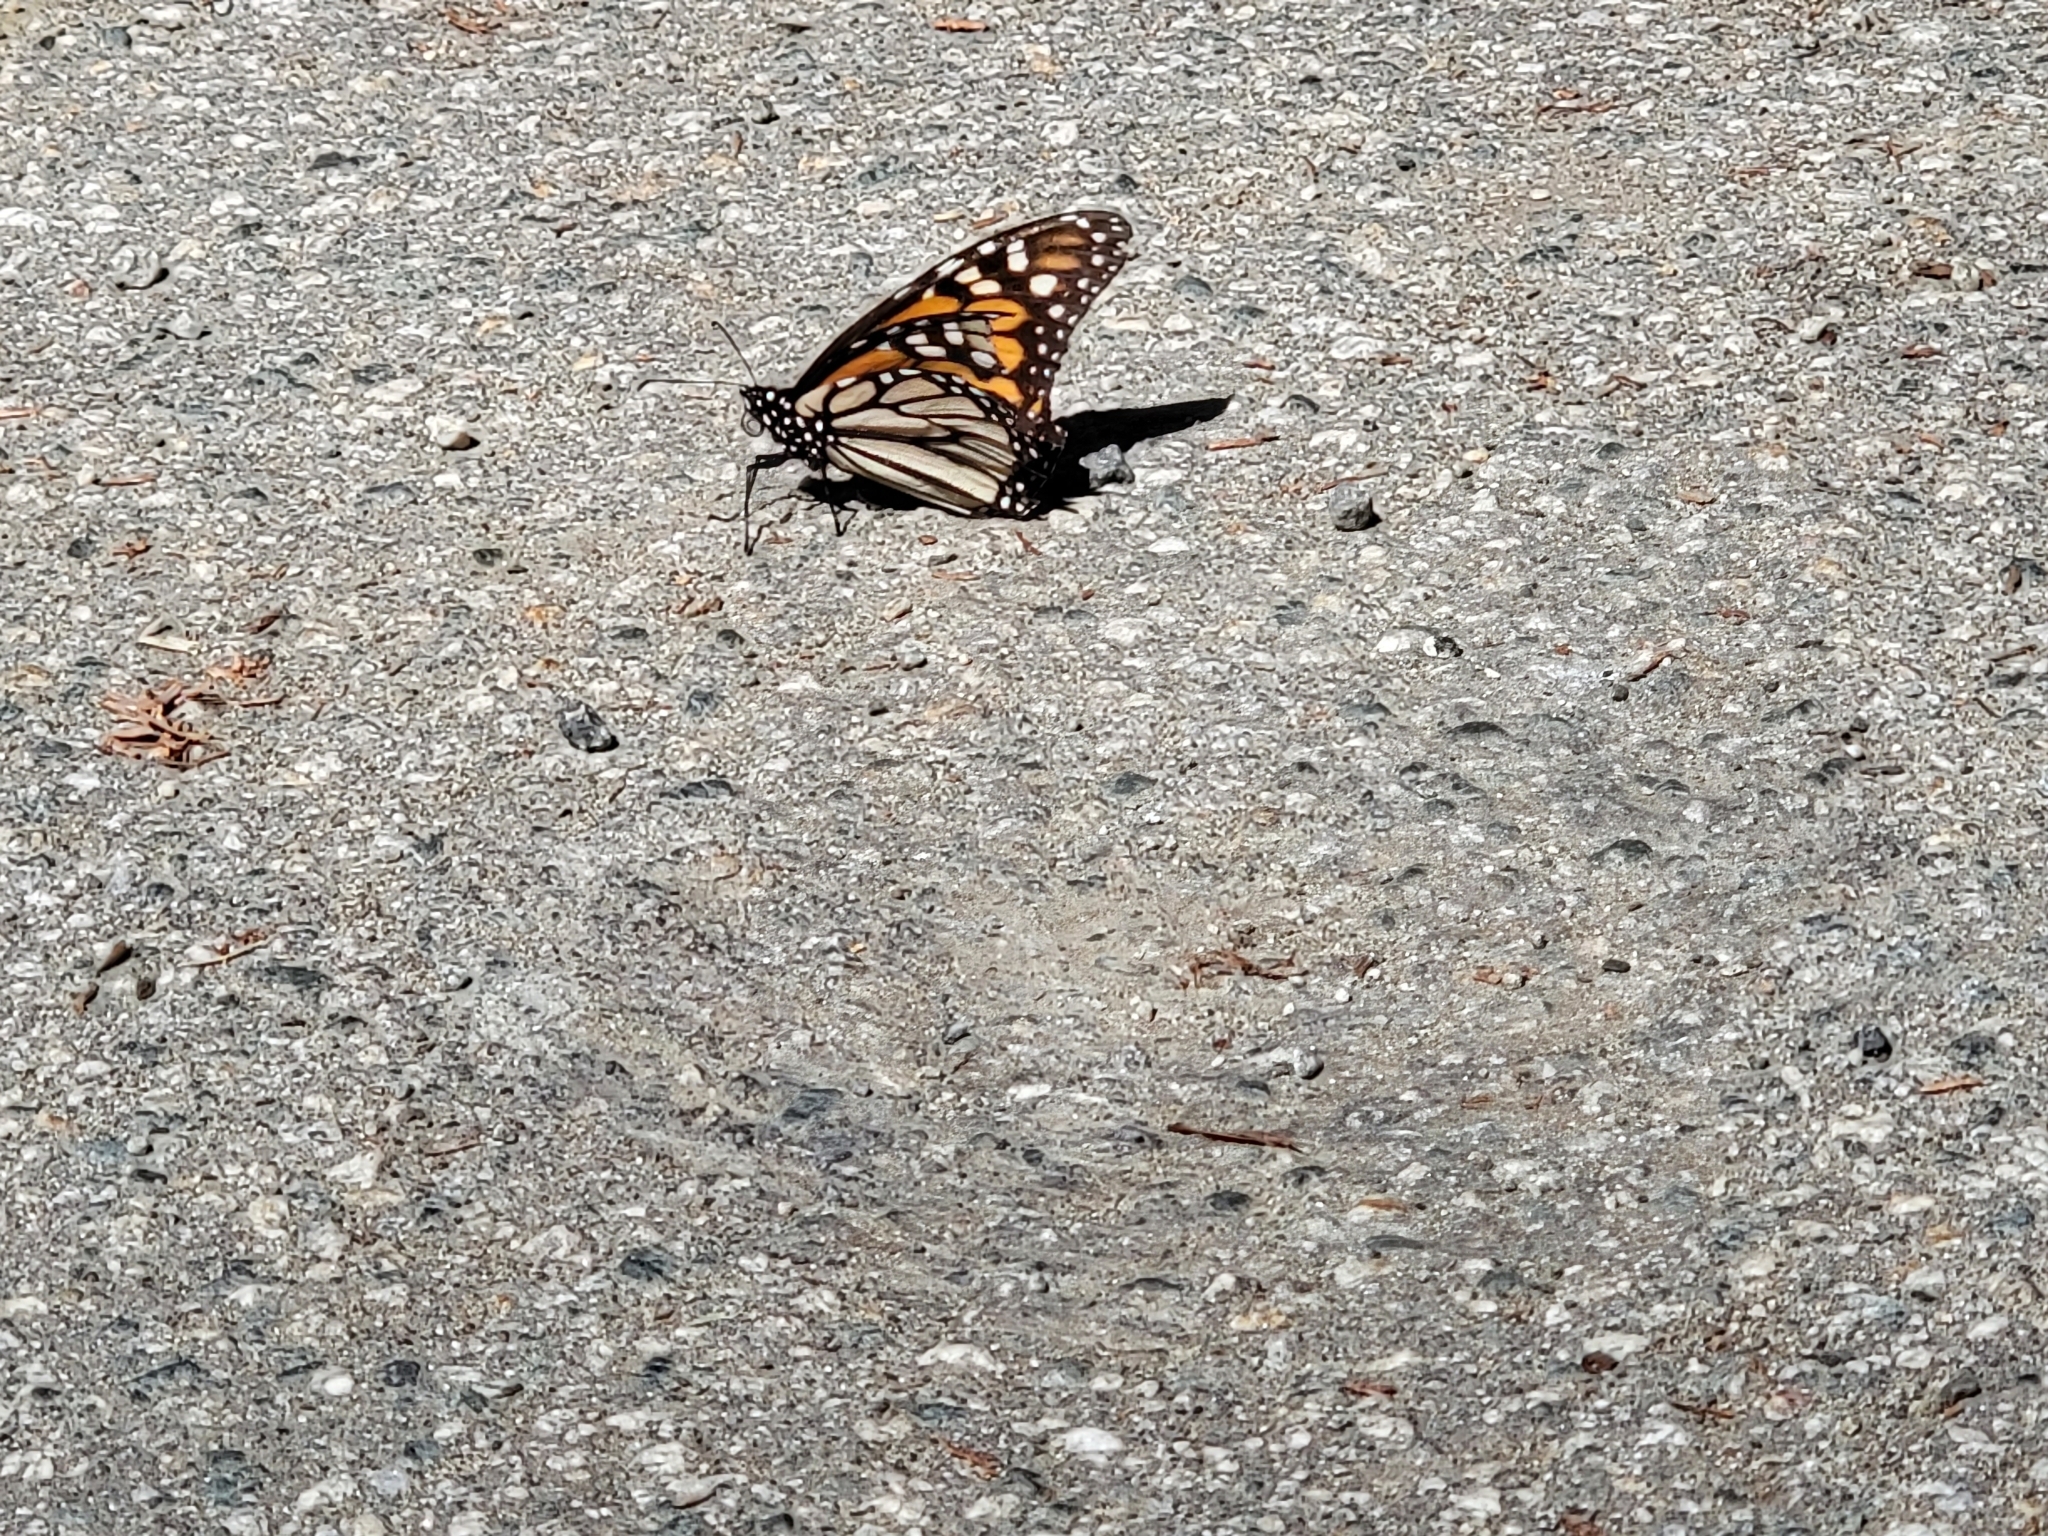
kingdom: Animalia
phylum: Arthropoda
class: Insecta
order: Lepidoptera
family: Nymphalidae
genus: Danaus
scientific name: Danaus plexippus
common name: Monarch
